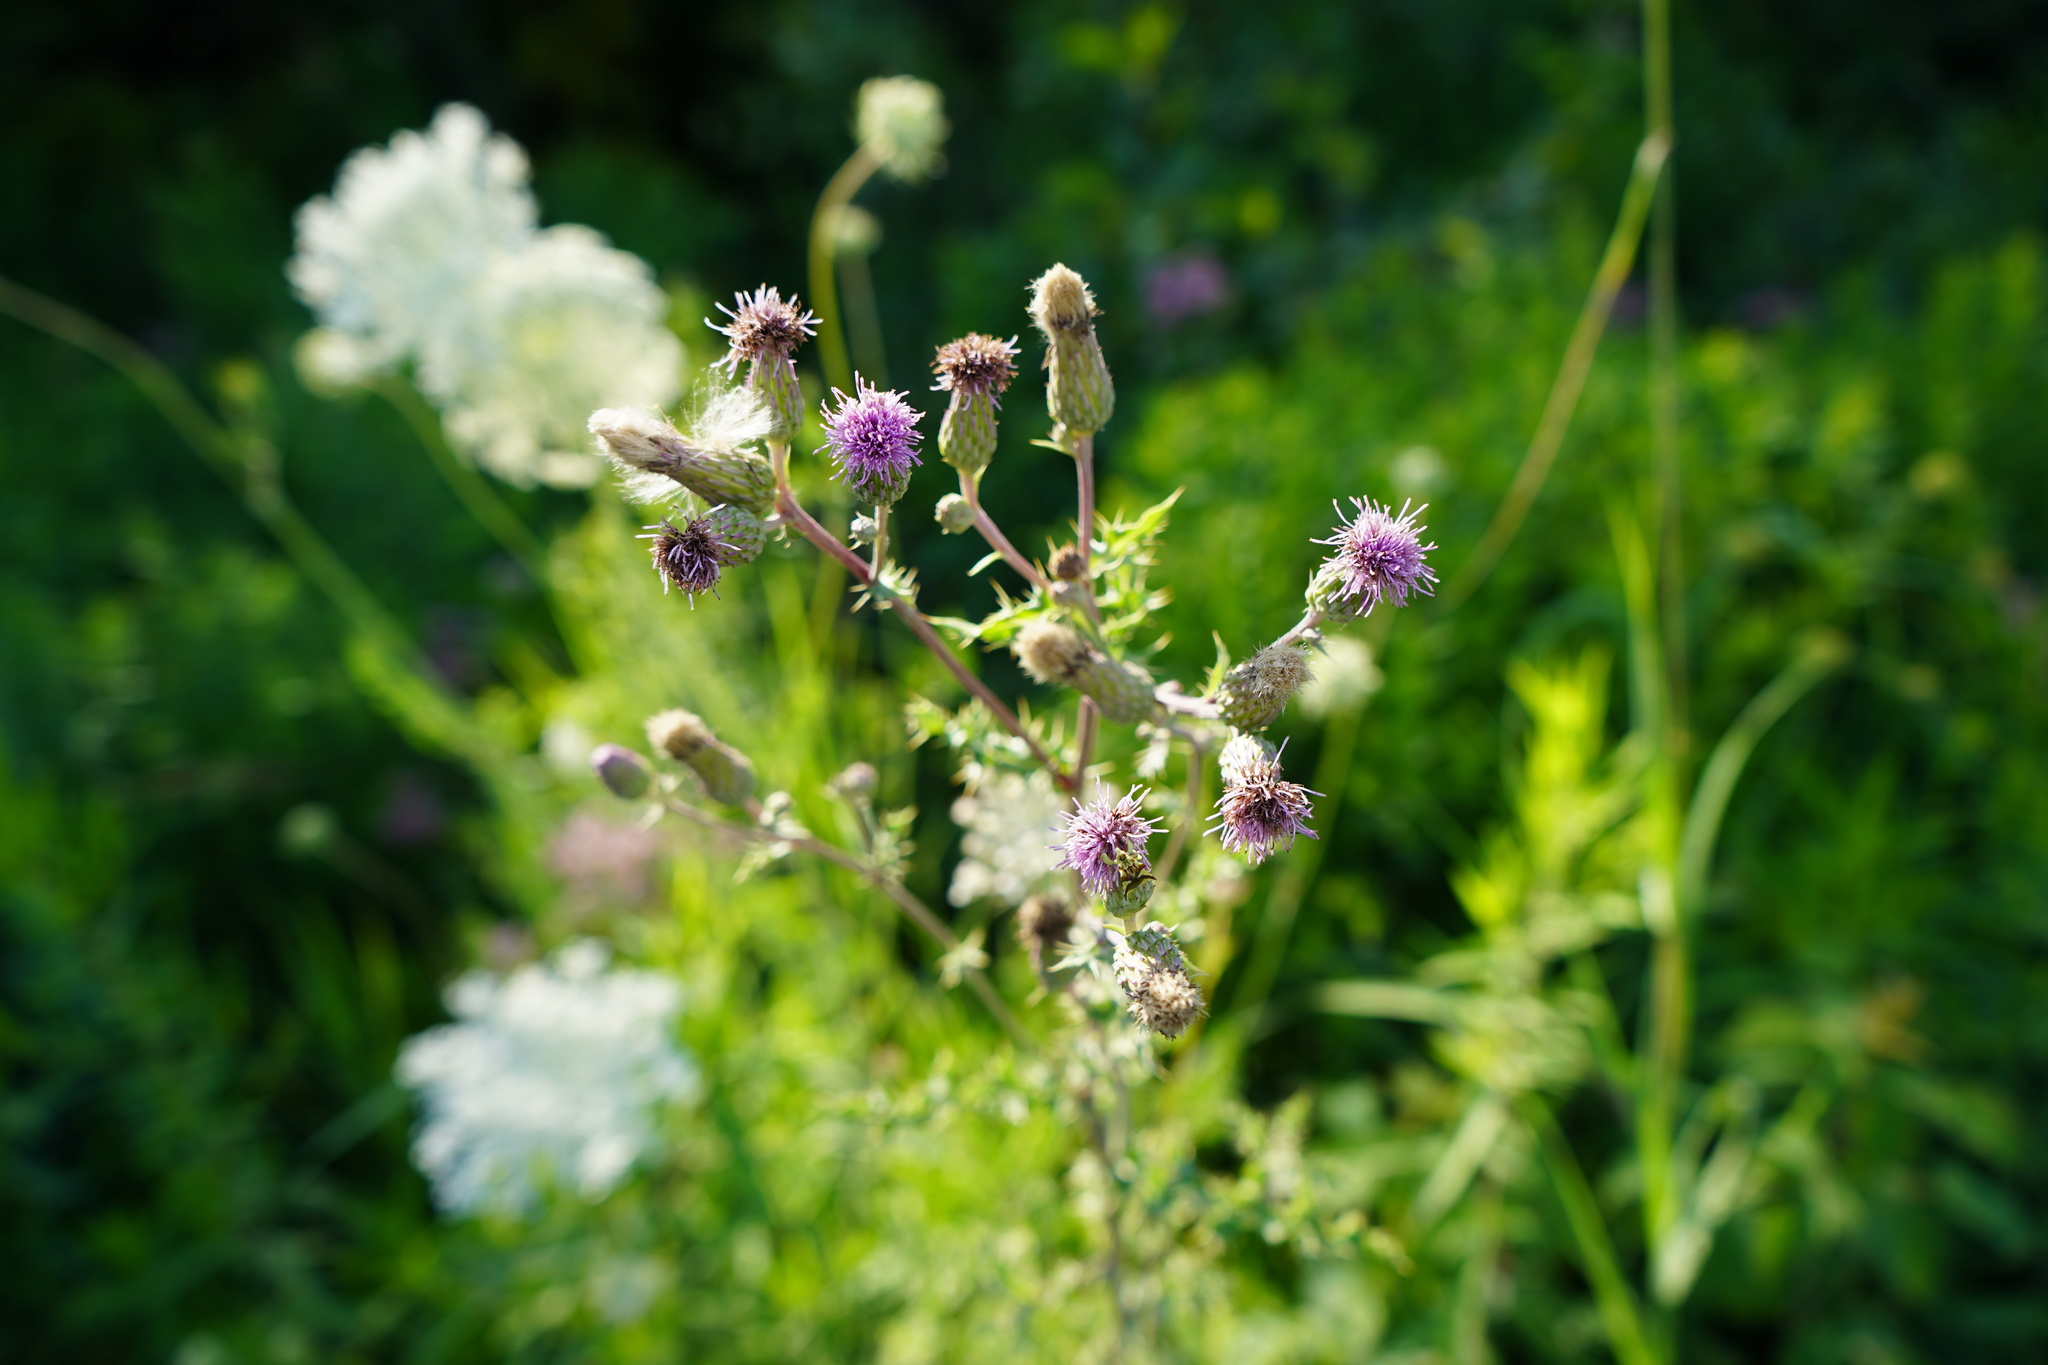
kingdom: Plantae
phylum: Tracheophyta
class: Magnoliopsida
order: Asterales
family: Asteraceae
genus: Cirsium
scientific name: Cirsium arvense
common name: Creeping thistle
